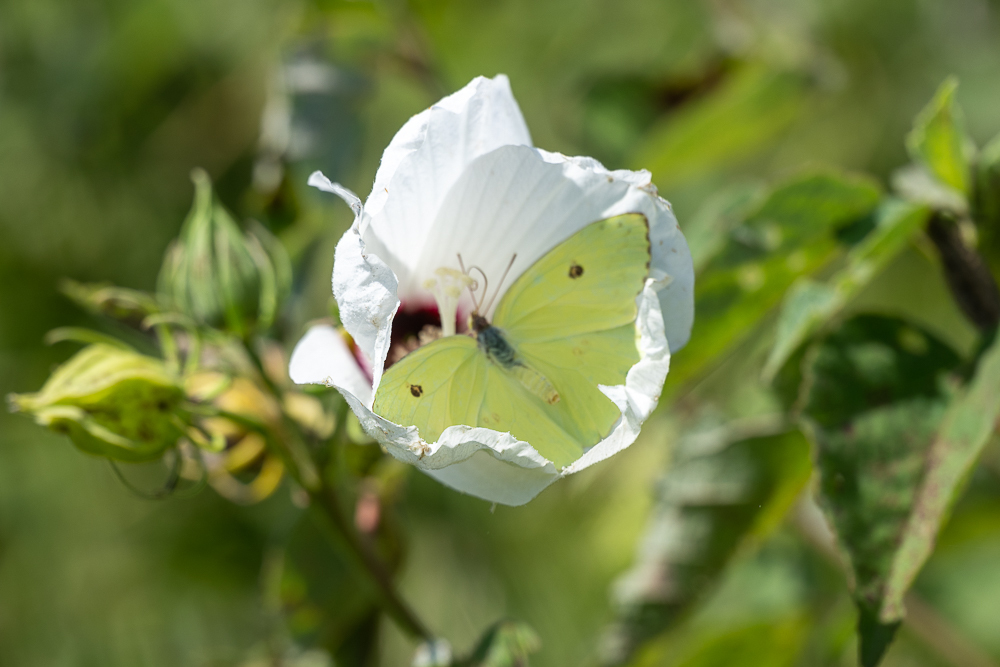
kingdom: Animalia
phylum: Arthropoda
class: Insecta
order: Lepidoptera
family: Pieridae
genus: Phoebis
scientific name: Phoebis sennae
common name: Cloudless sulphur
